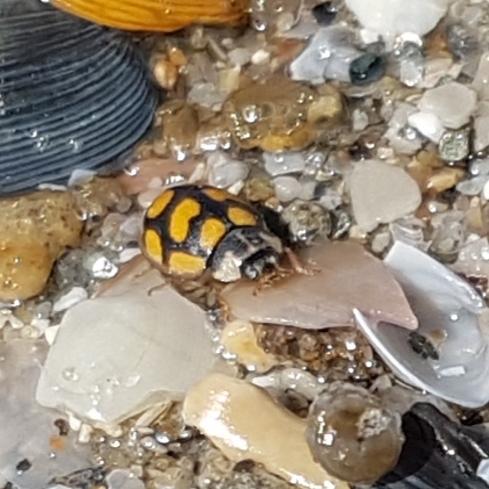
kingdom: Animalia
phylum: Arthropoda
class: Insecta
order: Coleoptera
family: Coccinellidae
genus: Oenopia
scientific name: Oenopia lyncea
